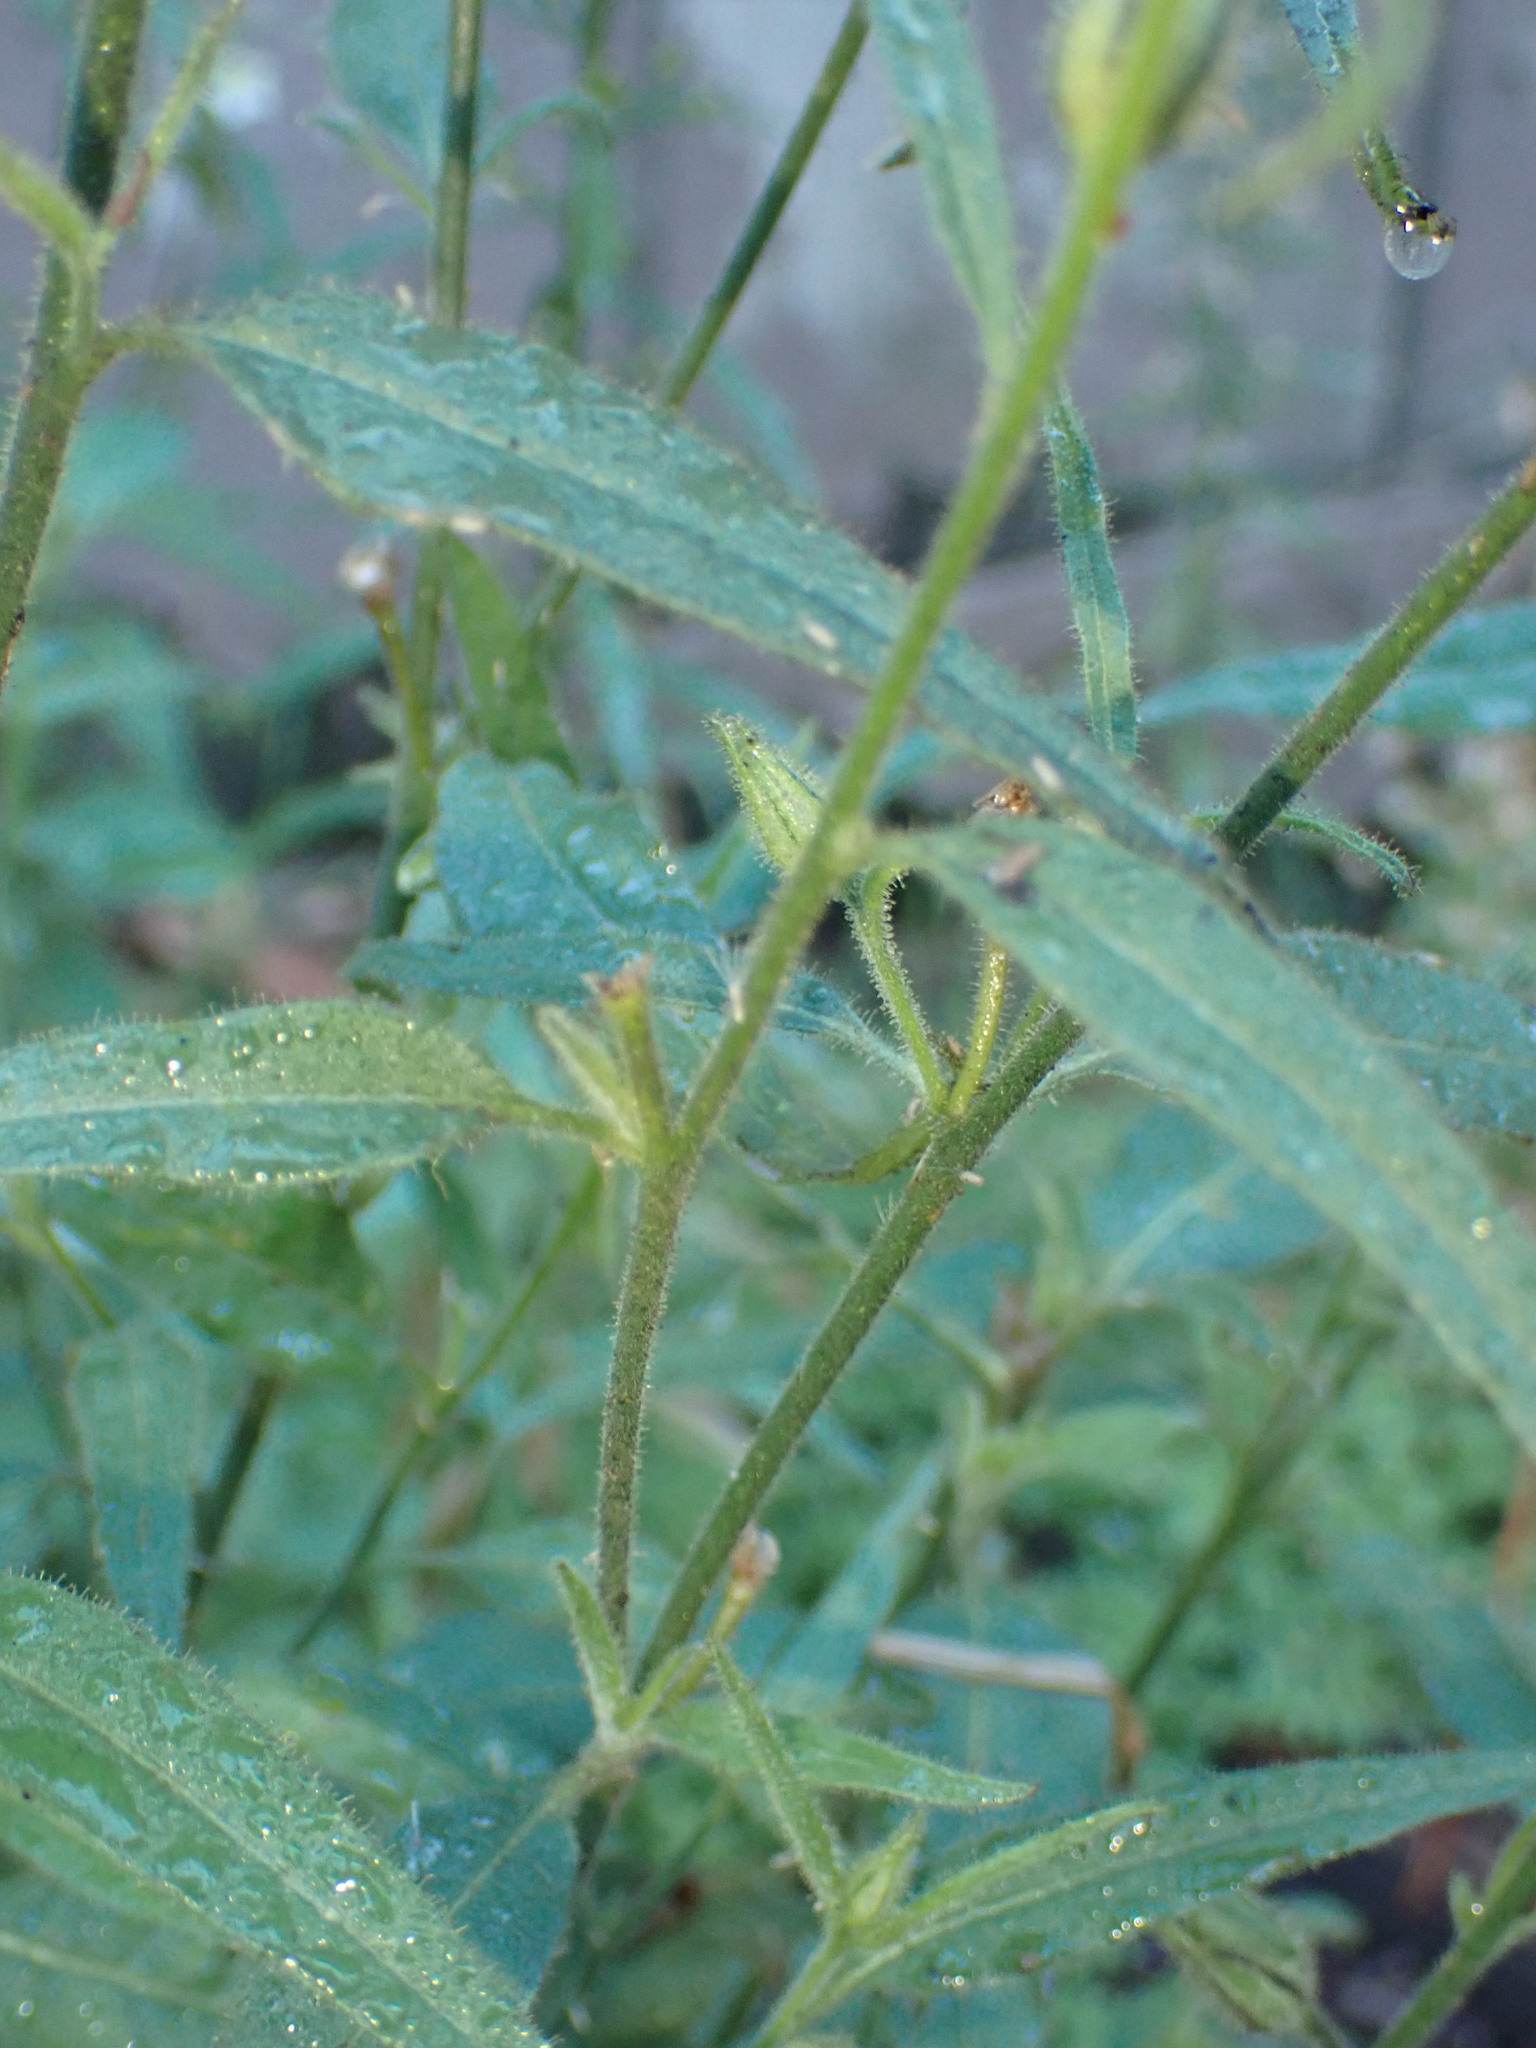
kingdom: Plantae
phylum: Tracheophyta
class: Magnoliopsida
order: Solanales
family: Solanaceae
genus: Nicotiana
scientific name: Nicotiana acuminata
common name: Manyflower tobacco
